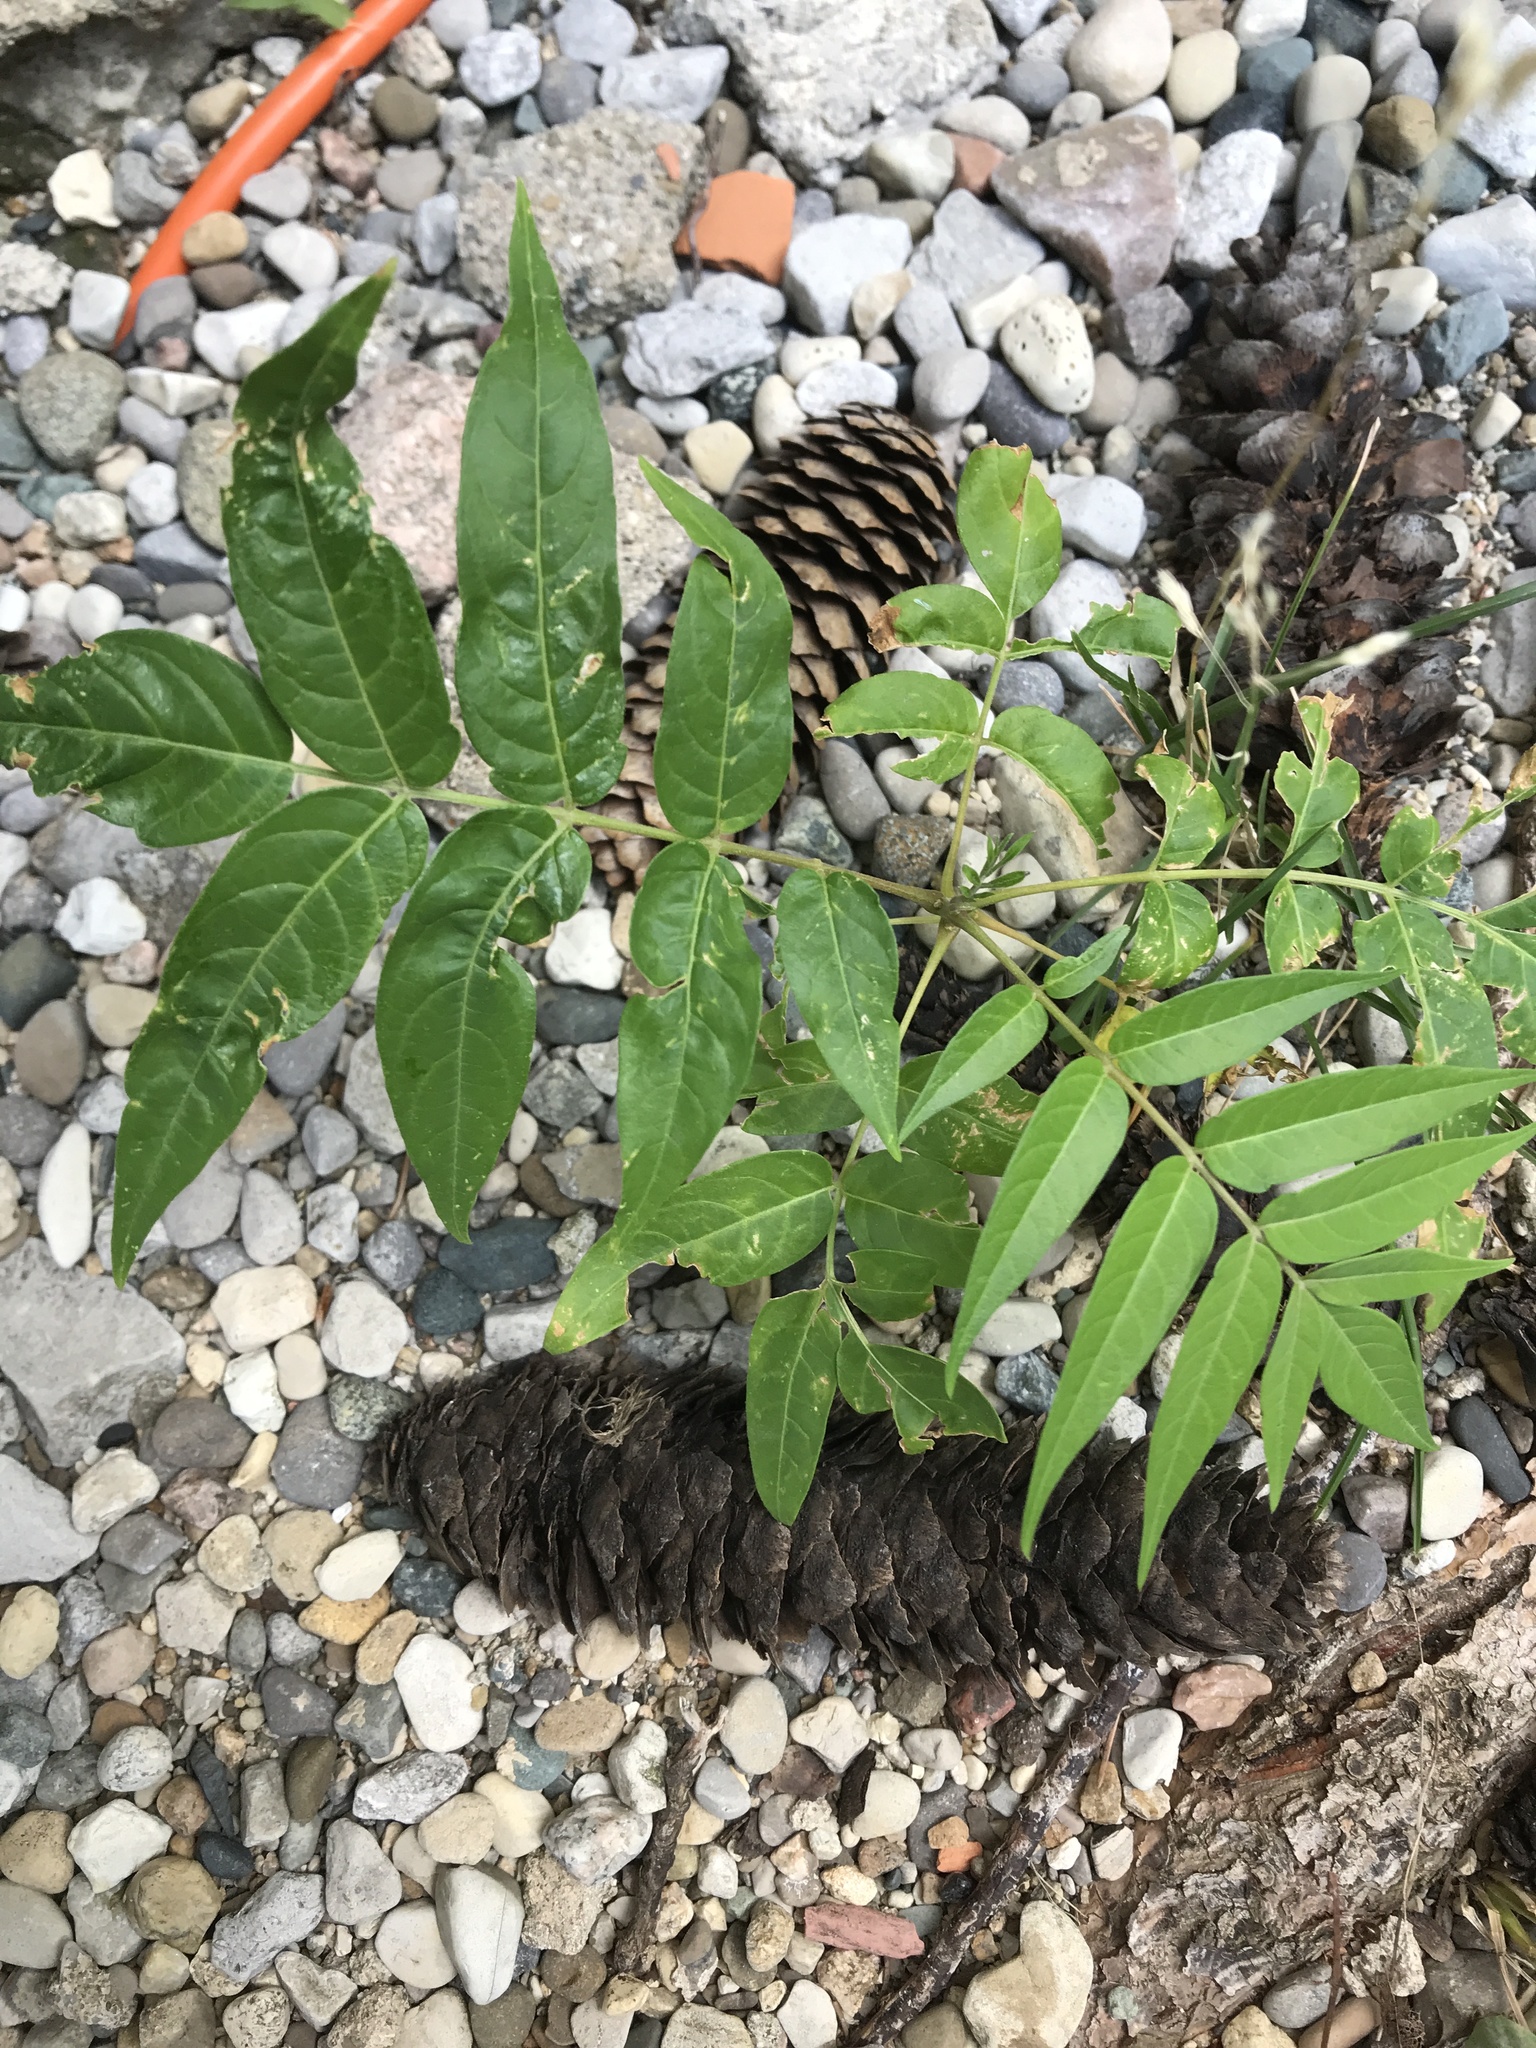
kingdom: Plantae
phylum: Tracheophyta
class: Magnoliopsida
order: Sapindales
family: Simaroubaceae
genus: Ailanthus
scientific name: Ailanthus altissima
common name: Tree-of-heaven
